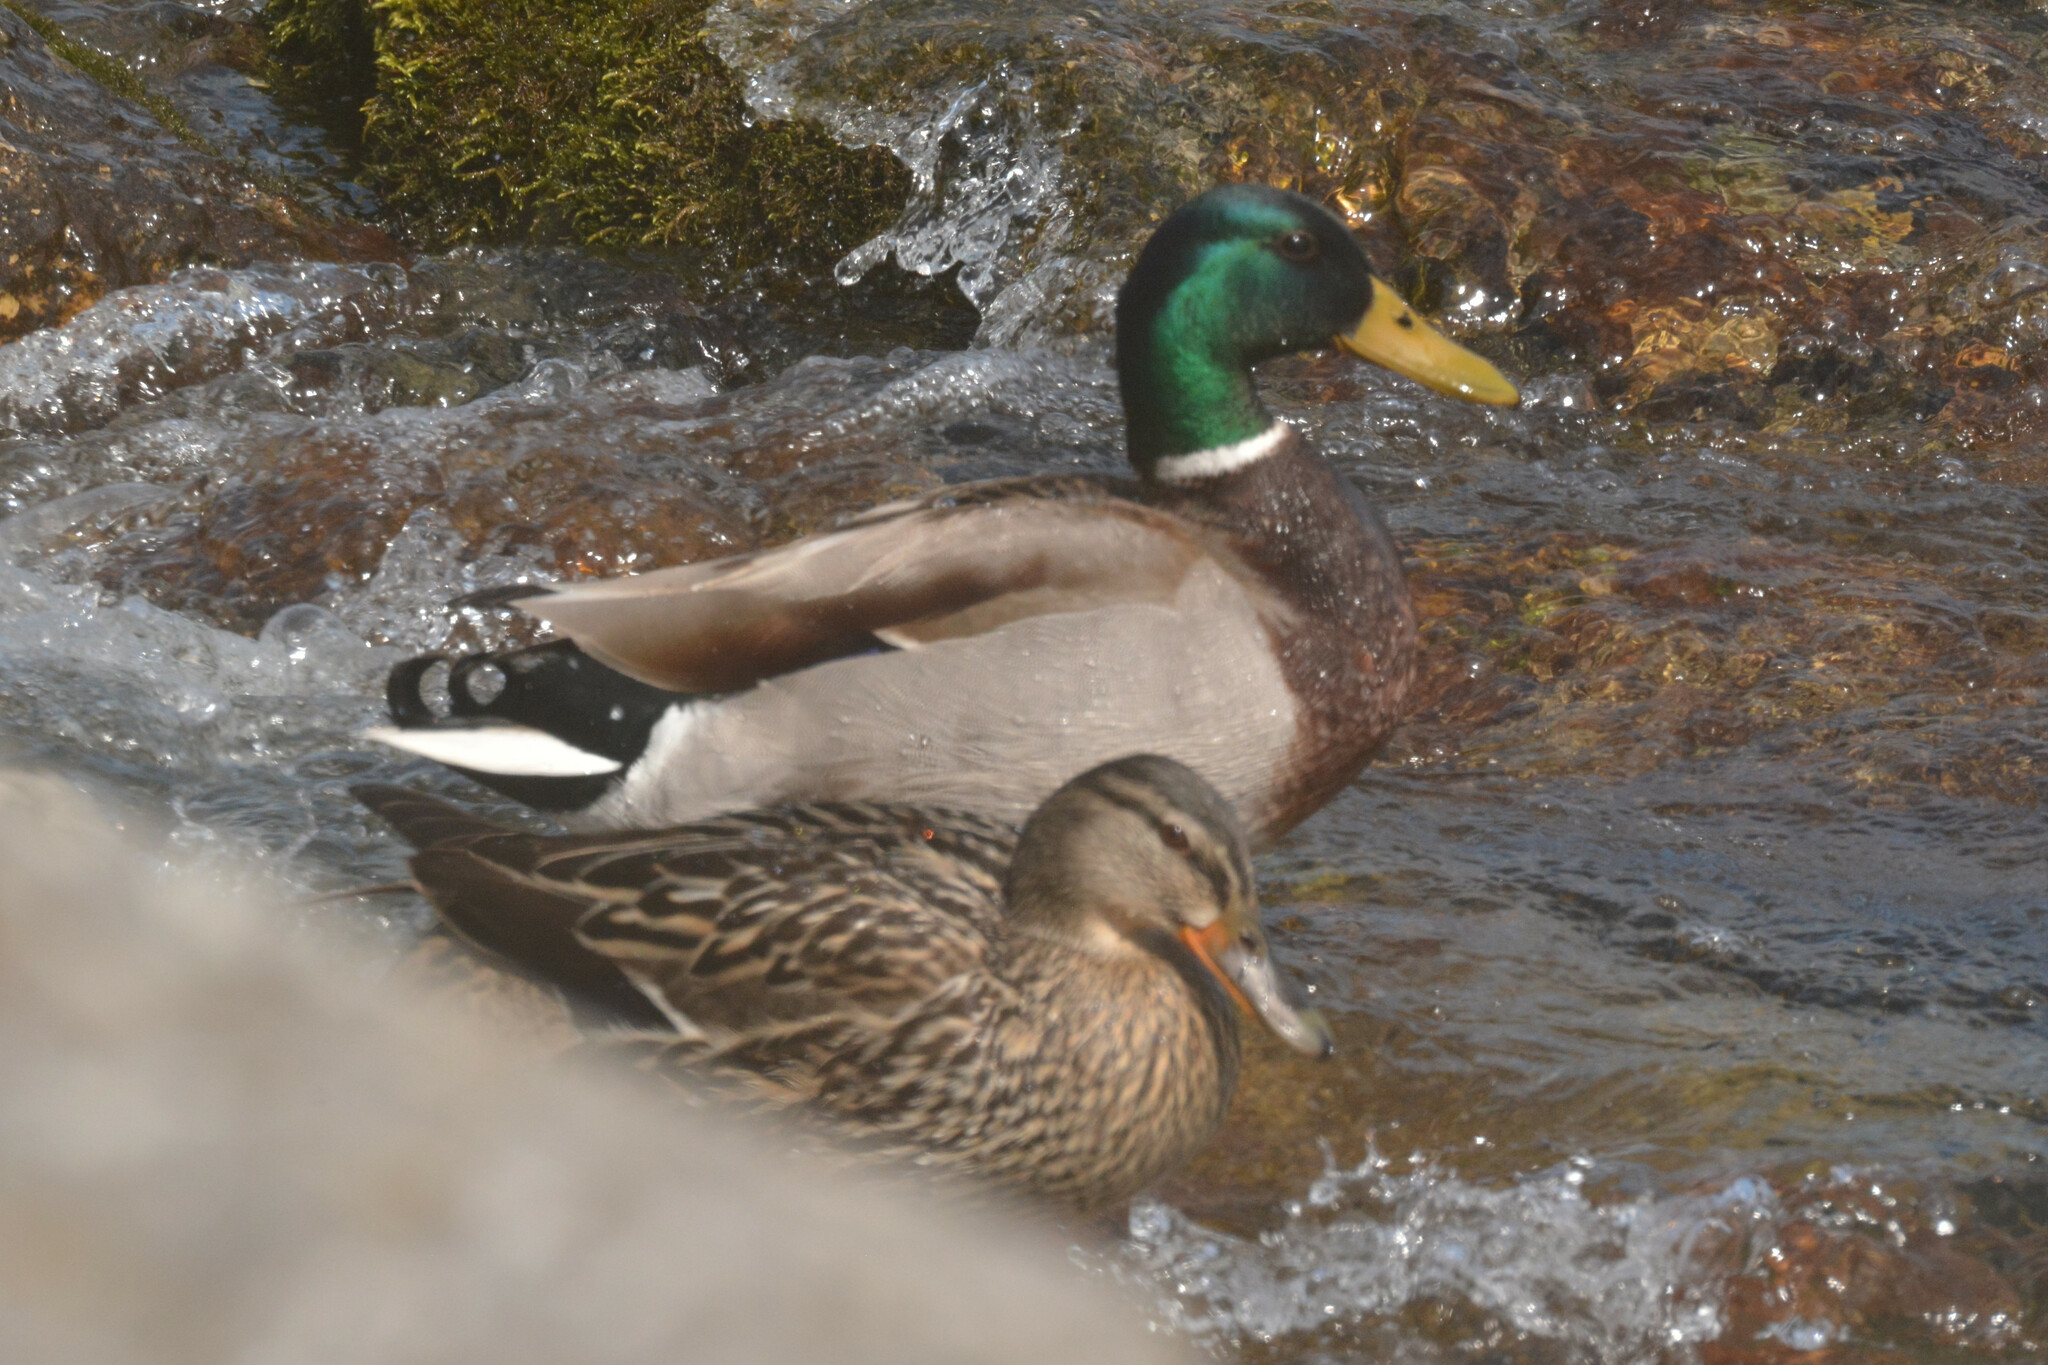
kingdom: Animalia
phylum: Chordata
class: Aves
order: Anseriformes
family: Anatidae
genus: Anas
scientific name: Anas platyrhynchos
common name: Mallard
